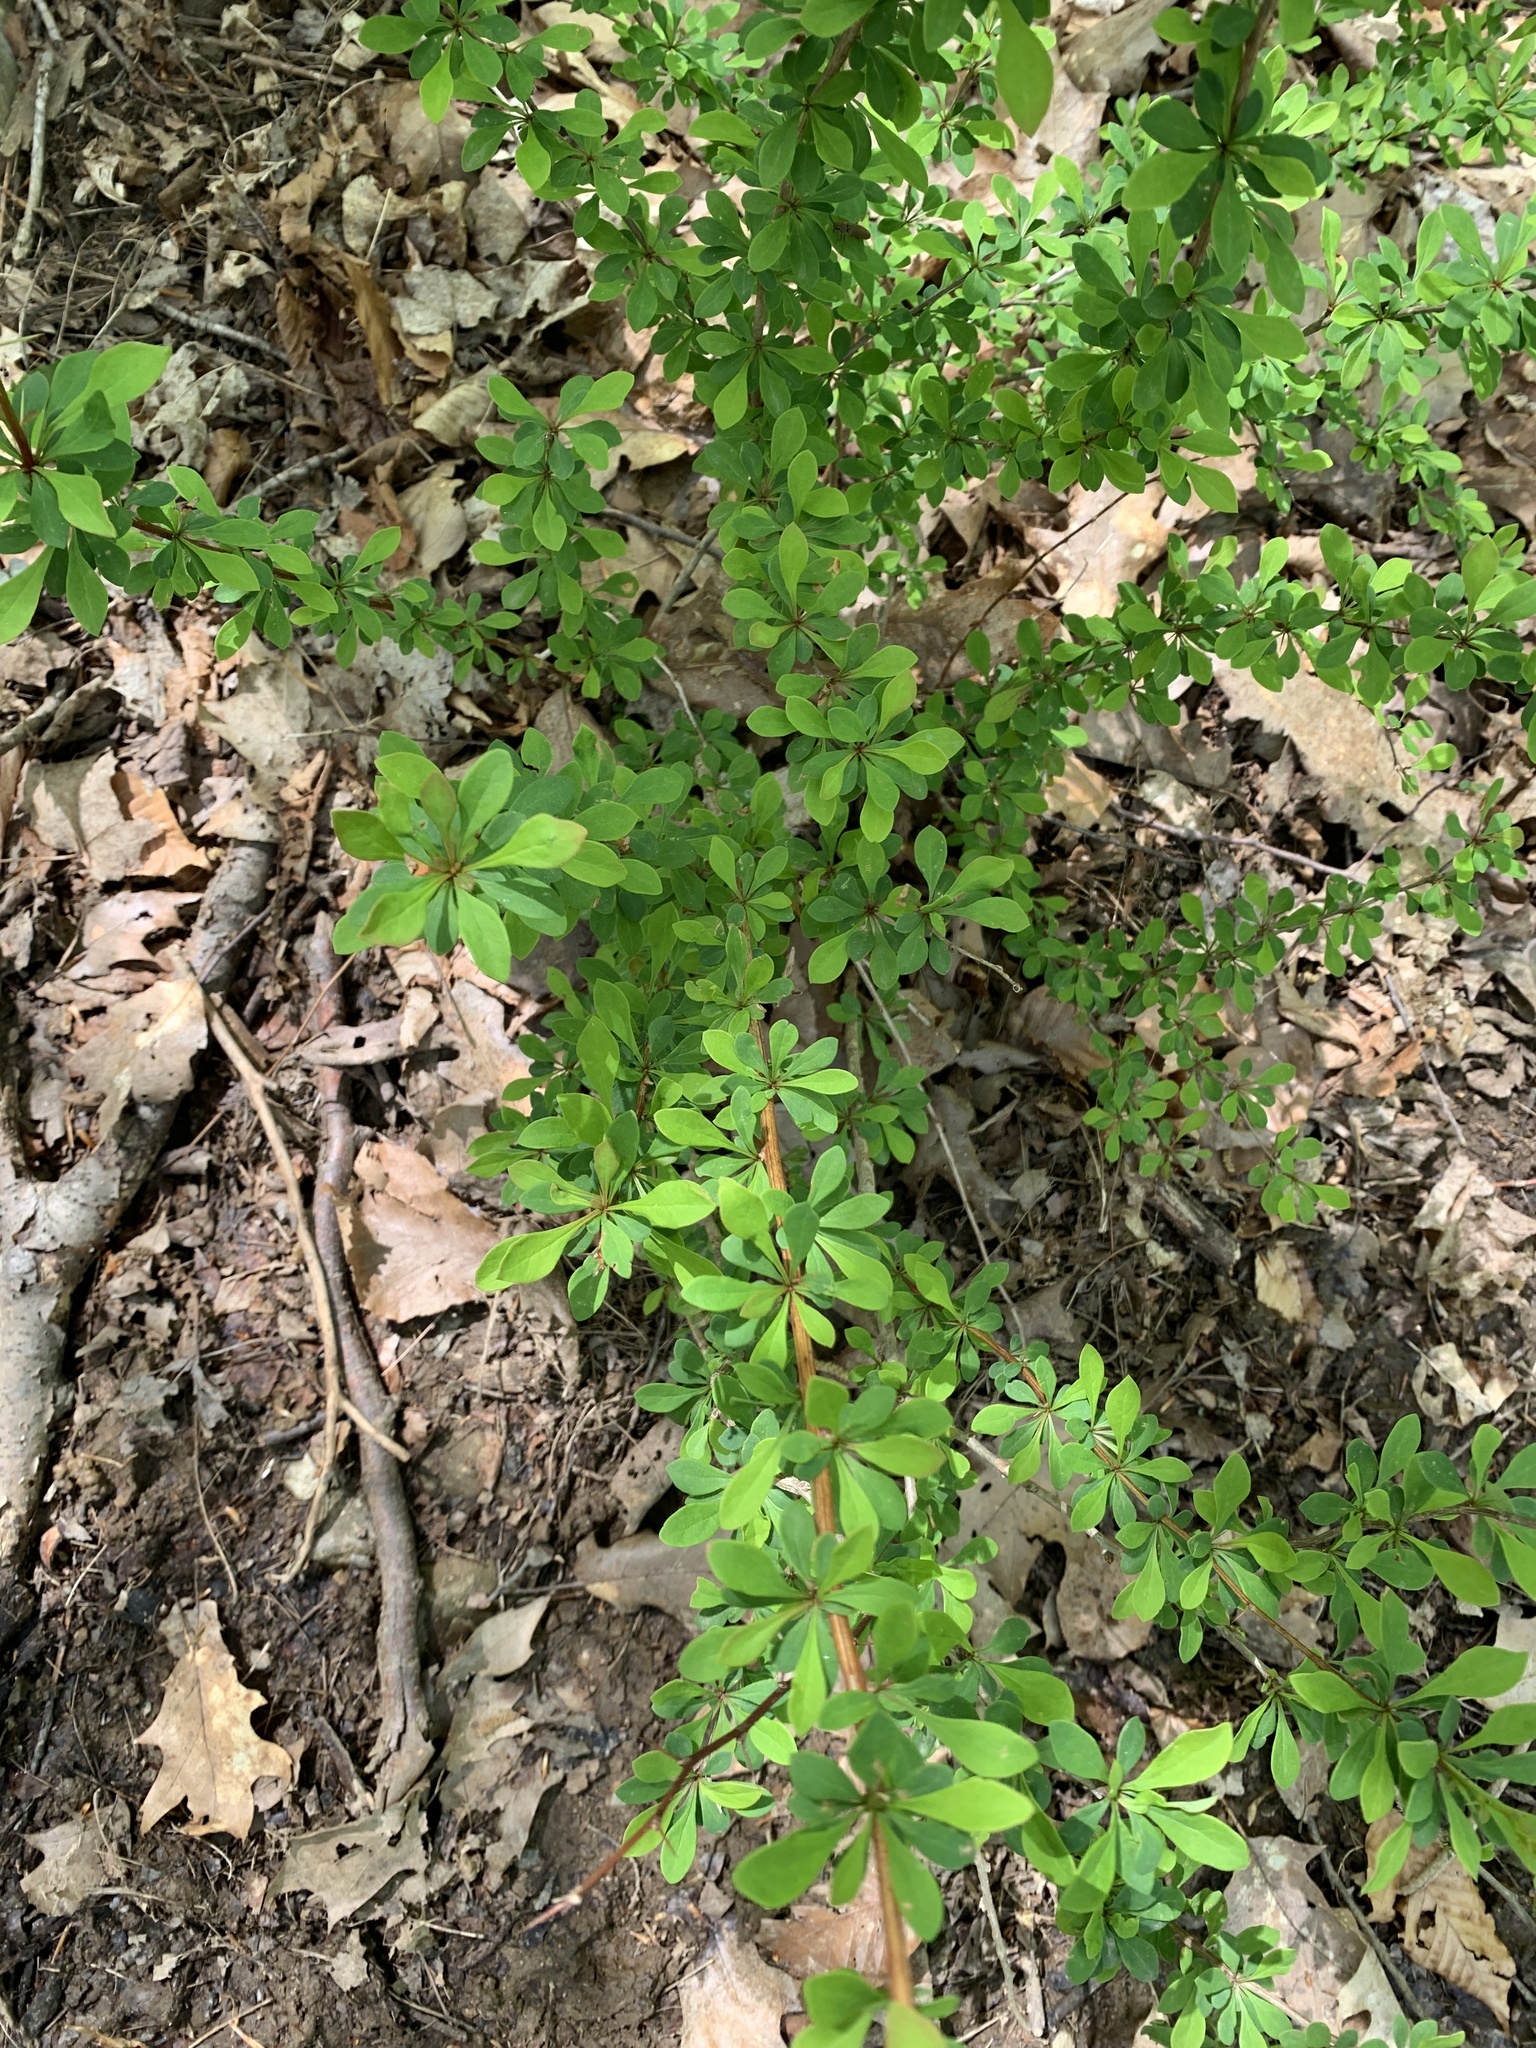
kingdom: Plantae
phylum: Tracheophyta
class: Magnoliopsida
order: Ranunculales
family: Berberidaceae
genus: Berberis
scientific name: Berberis thunbergii
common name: Japanese barberry
